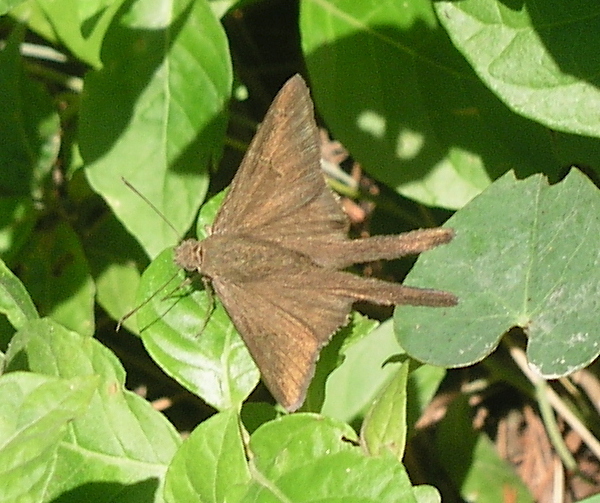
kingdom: Animalia
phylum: Arthropoda
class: Insecta
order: Lepidoptera
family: Hesperiidae
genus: Urbanus
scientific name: Urbanus simplicius
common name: Plain longtail
